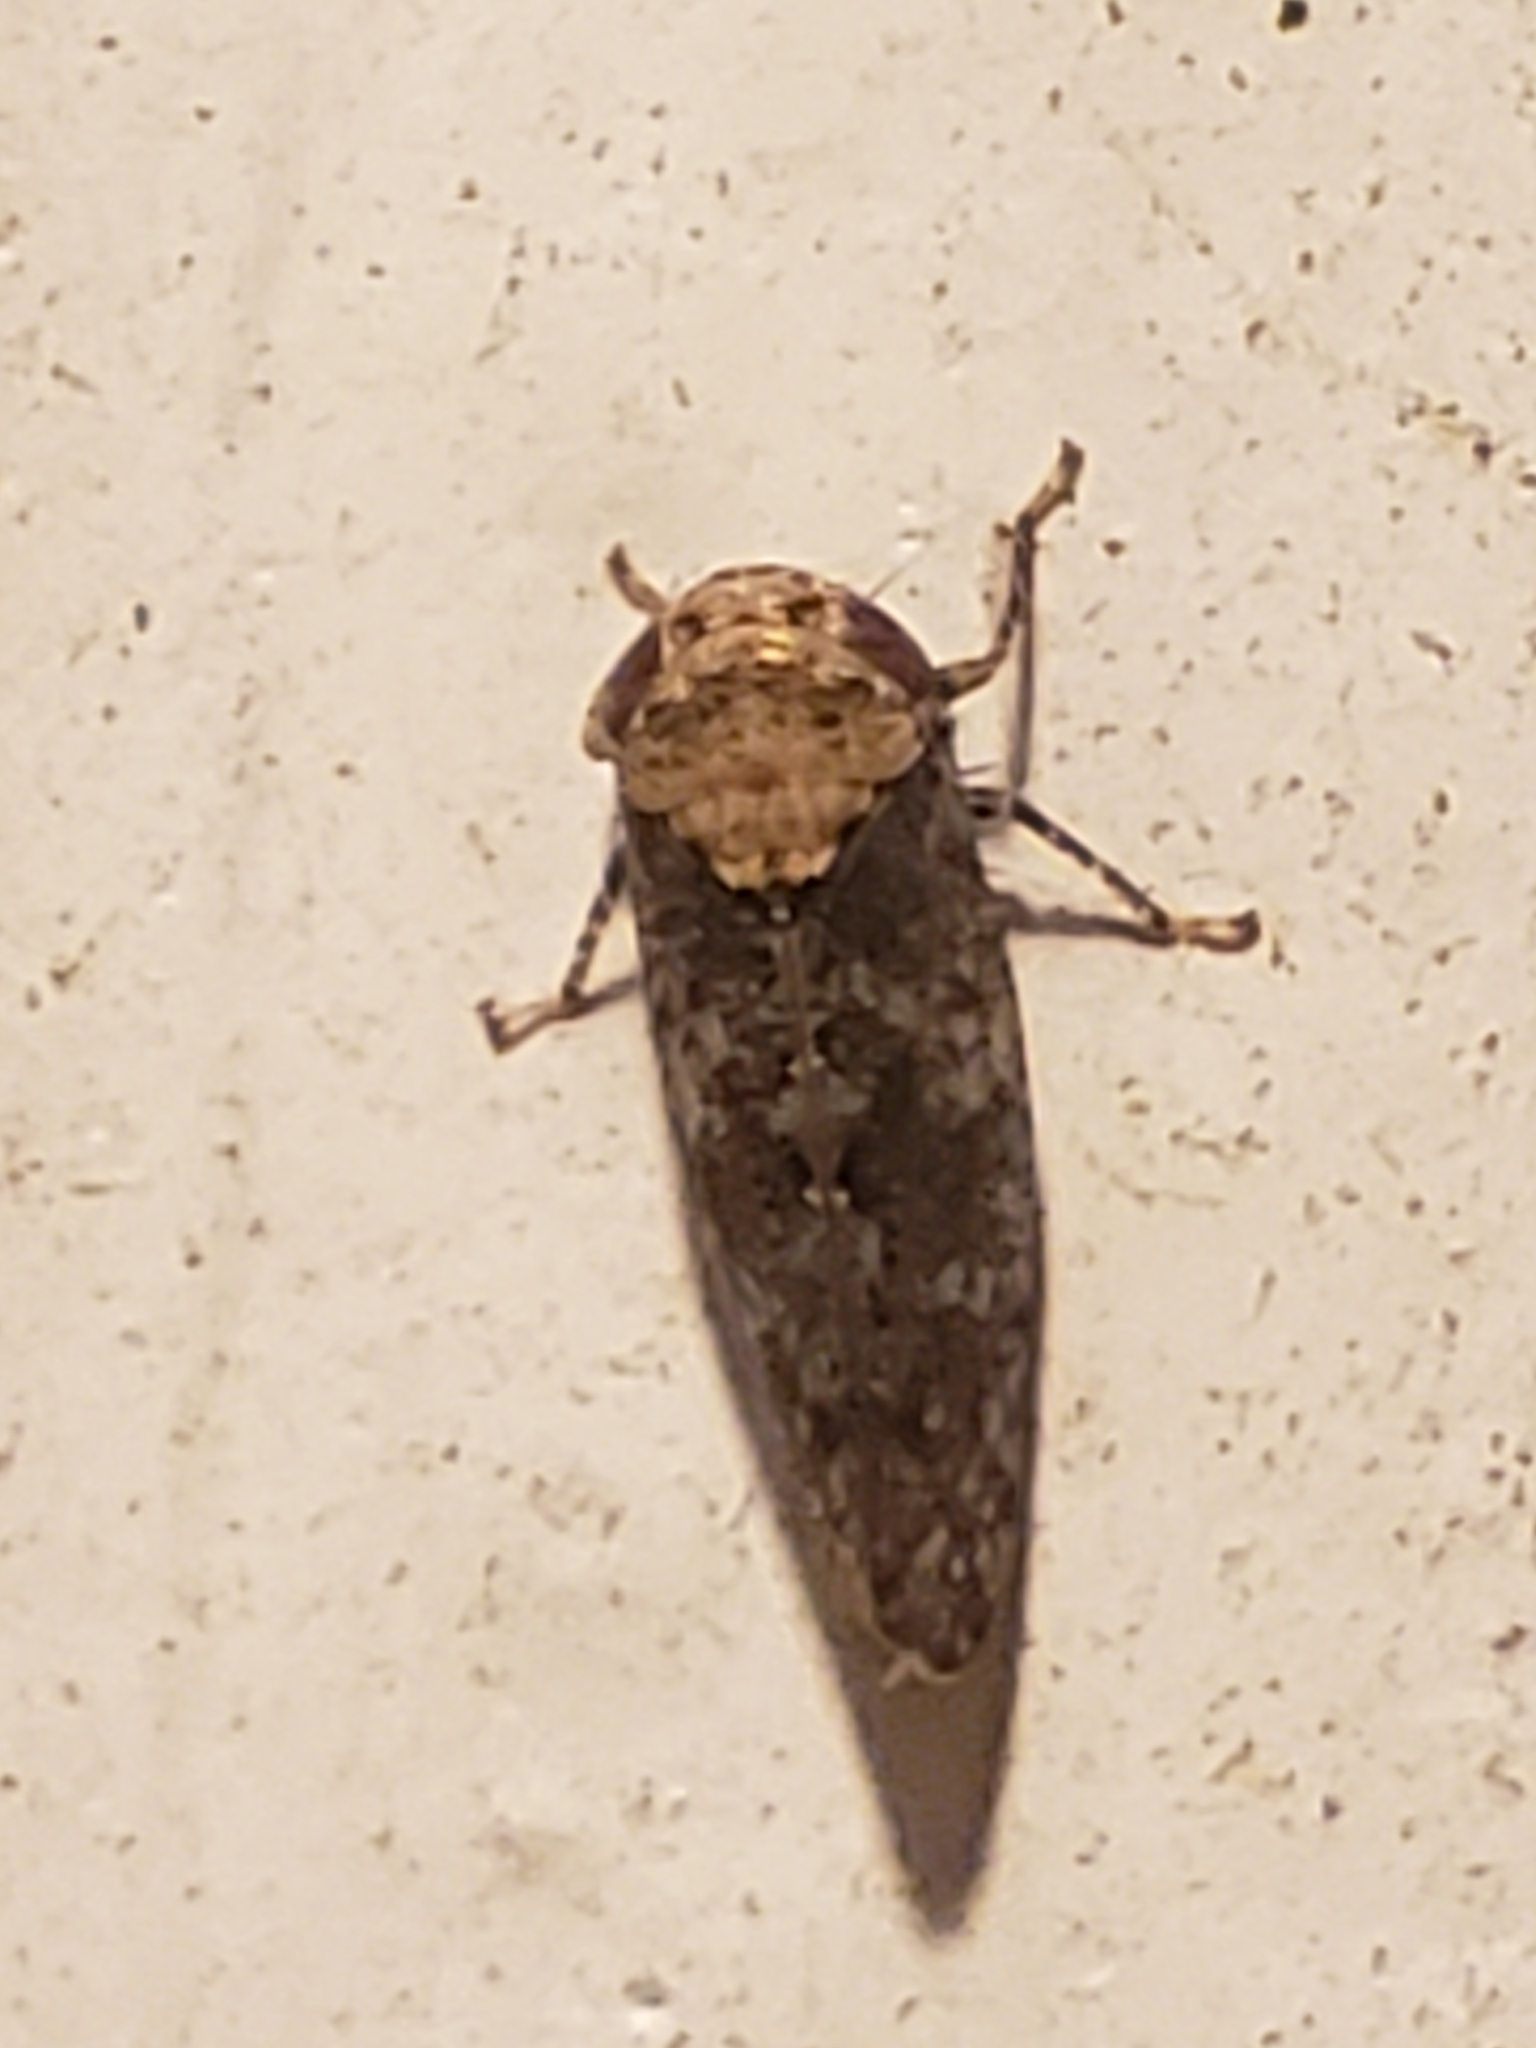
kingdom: Animalia
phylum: Arthropoda
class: Insecta
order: Hemiptera
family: Cicadellidae
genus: Paraphlepsius
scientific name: Paraphlepsius collitus
